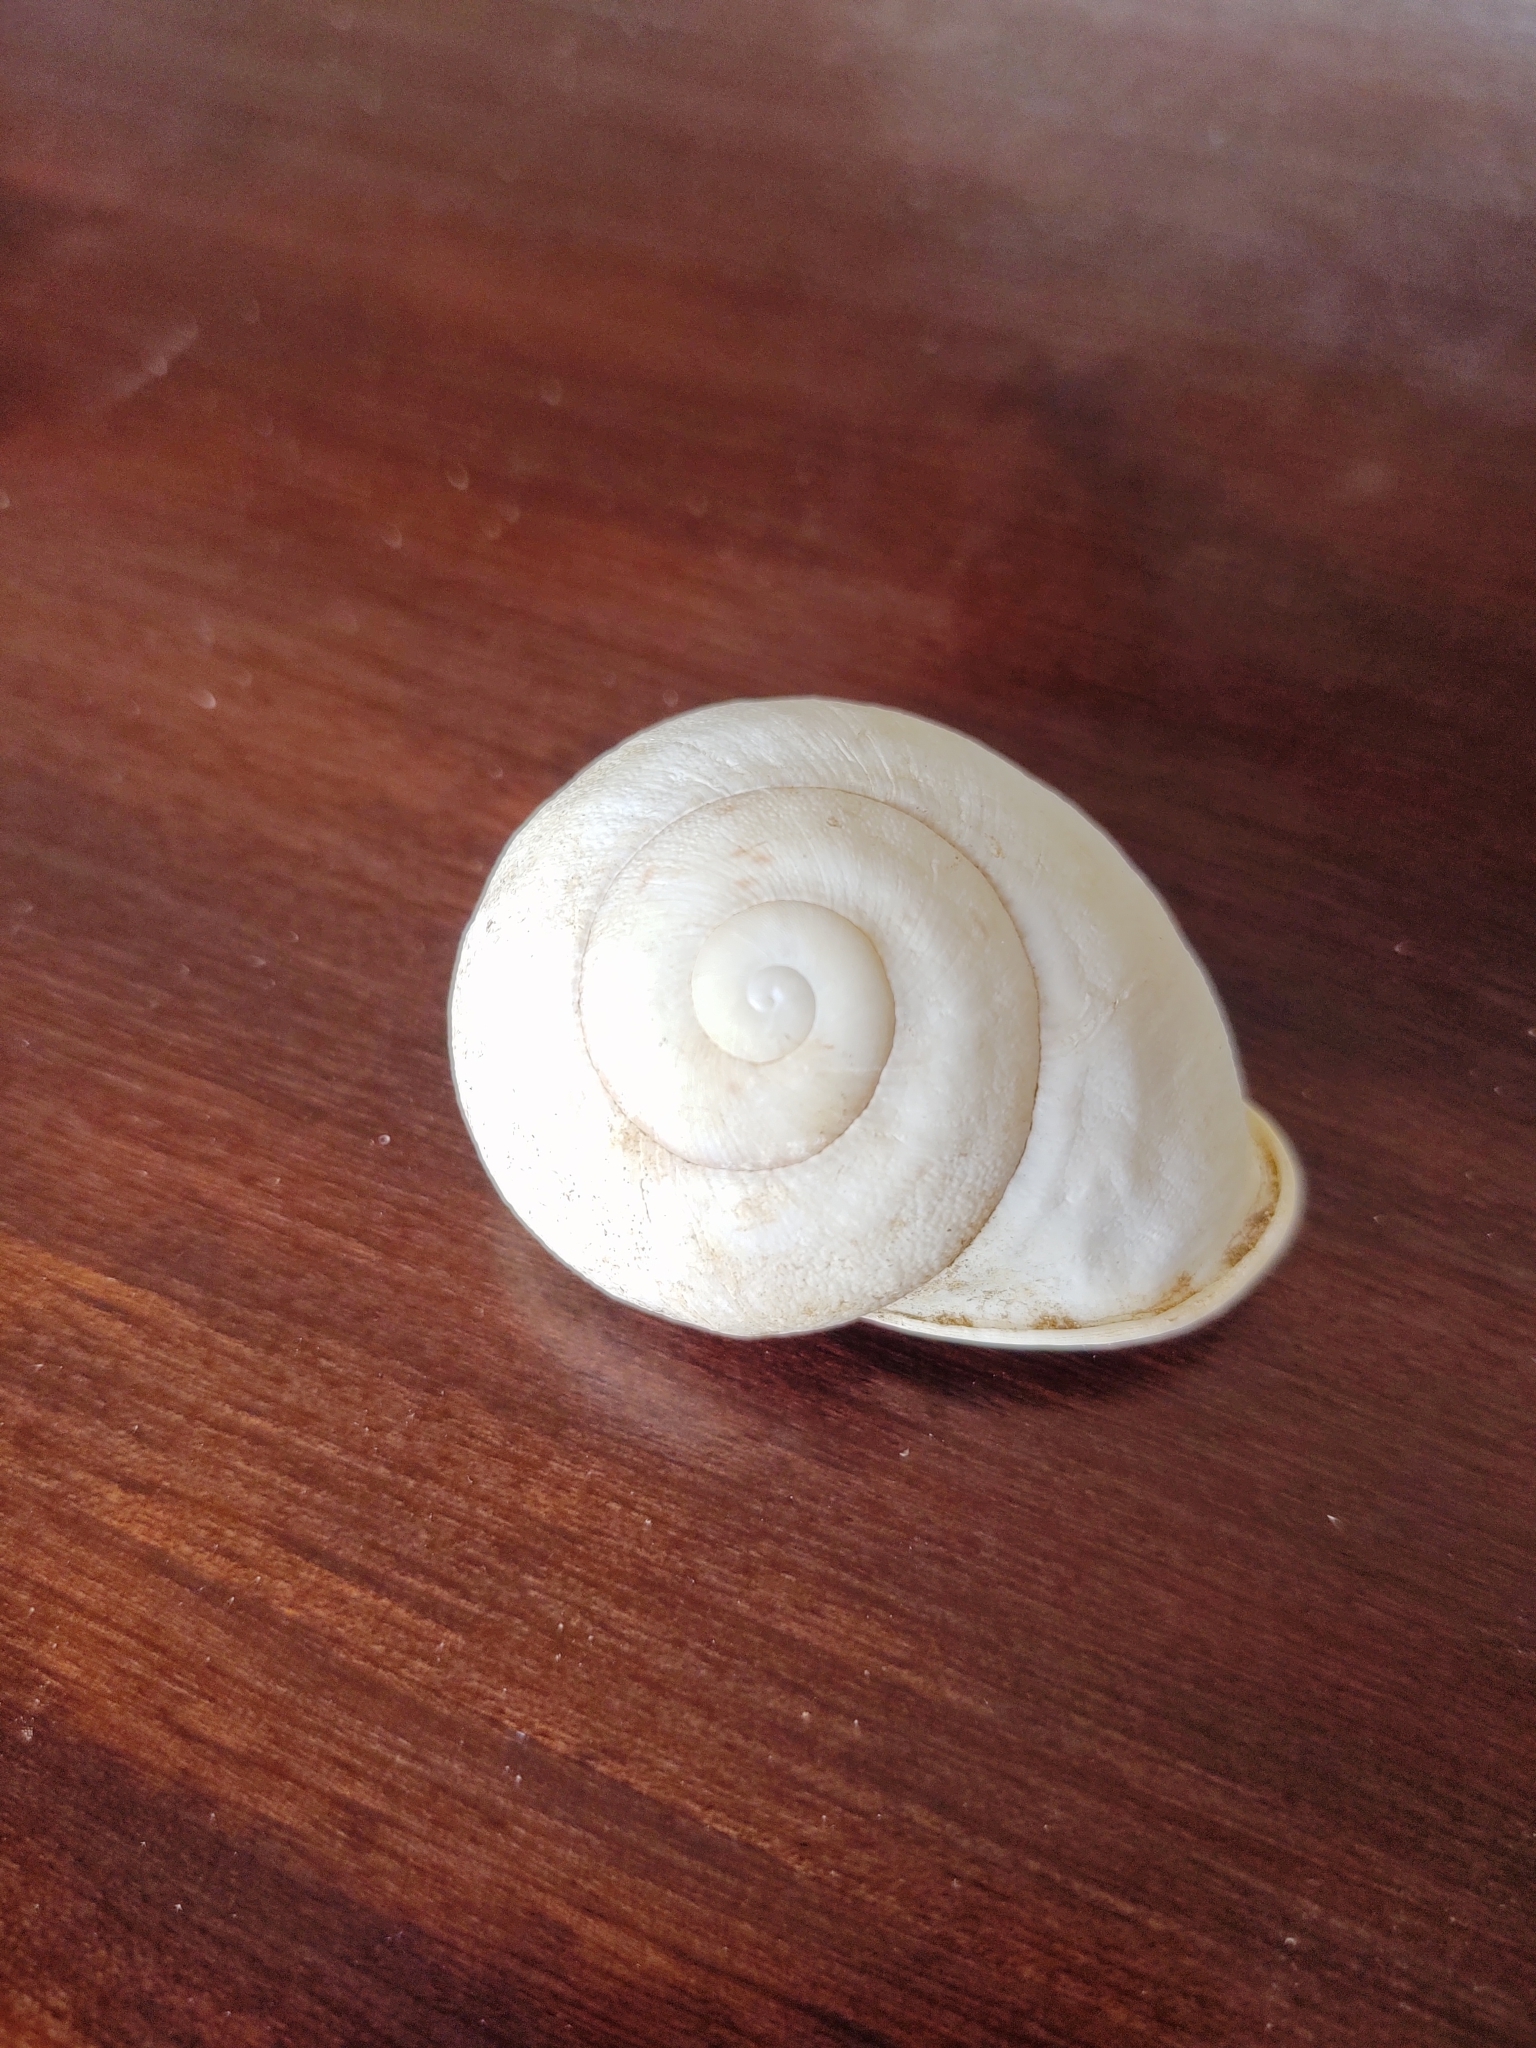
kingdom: Animalia
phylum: Mollusca
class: Gastropoda
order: Stylommatophora
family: Pleurodontidae
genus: Thelidomus
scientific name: Thelidomus aspera
